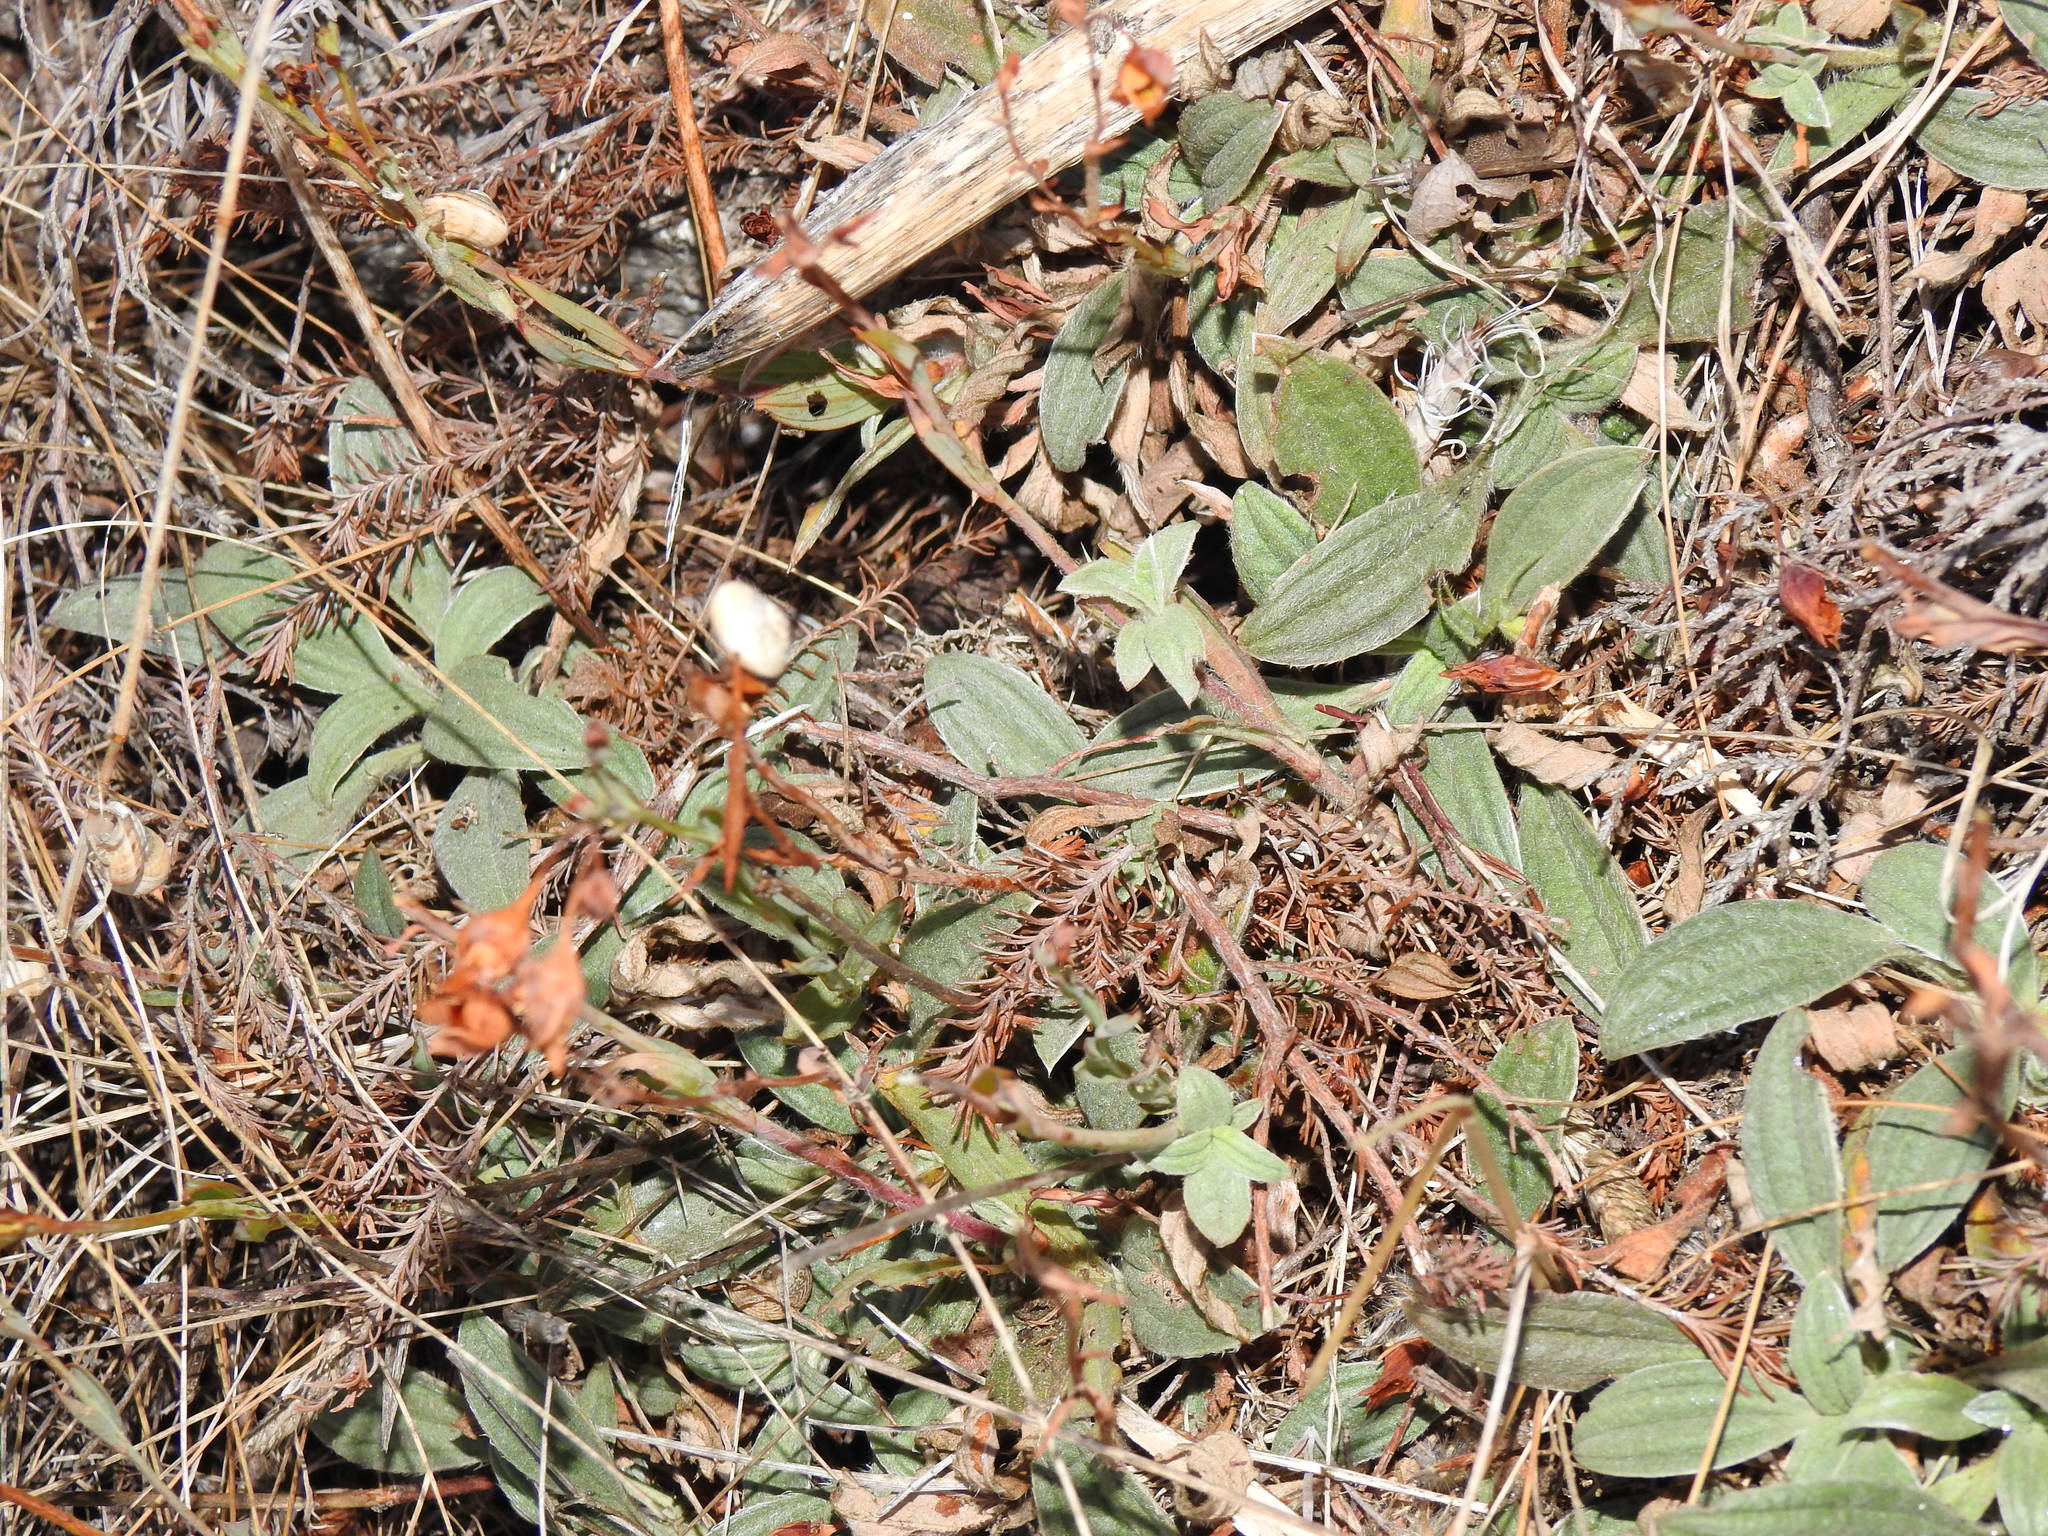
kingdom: Plantae
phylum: Tracheophyta
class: Magnoliopsida
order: Malvales
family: Cistaceae
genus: Tuberaria
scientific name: Tuberaria lignosa
